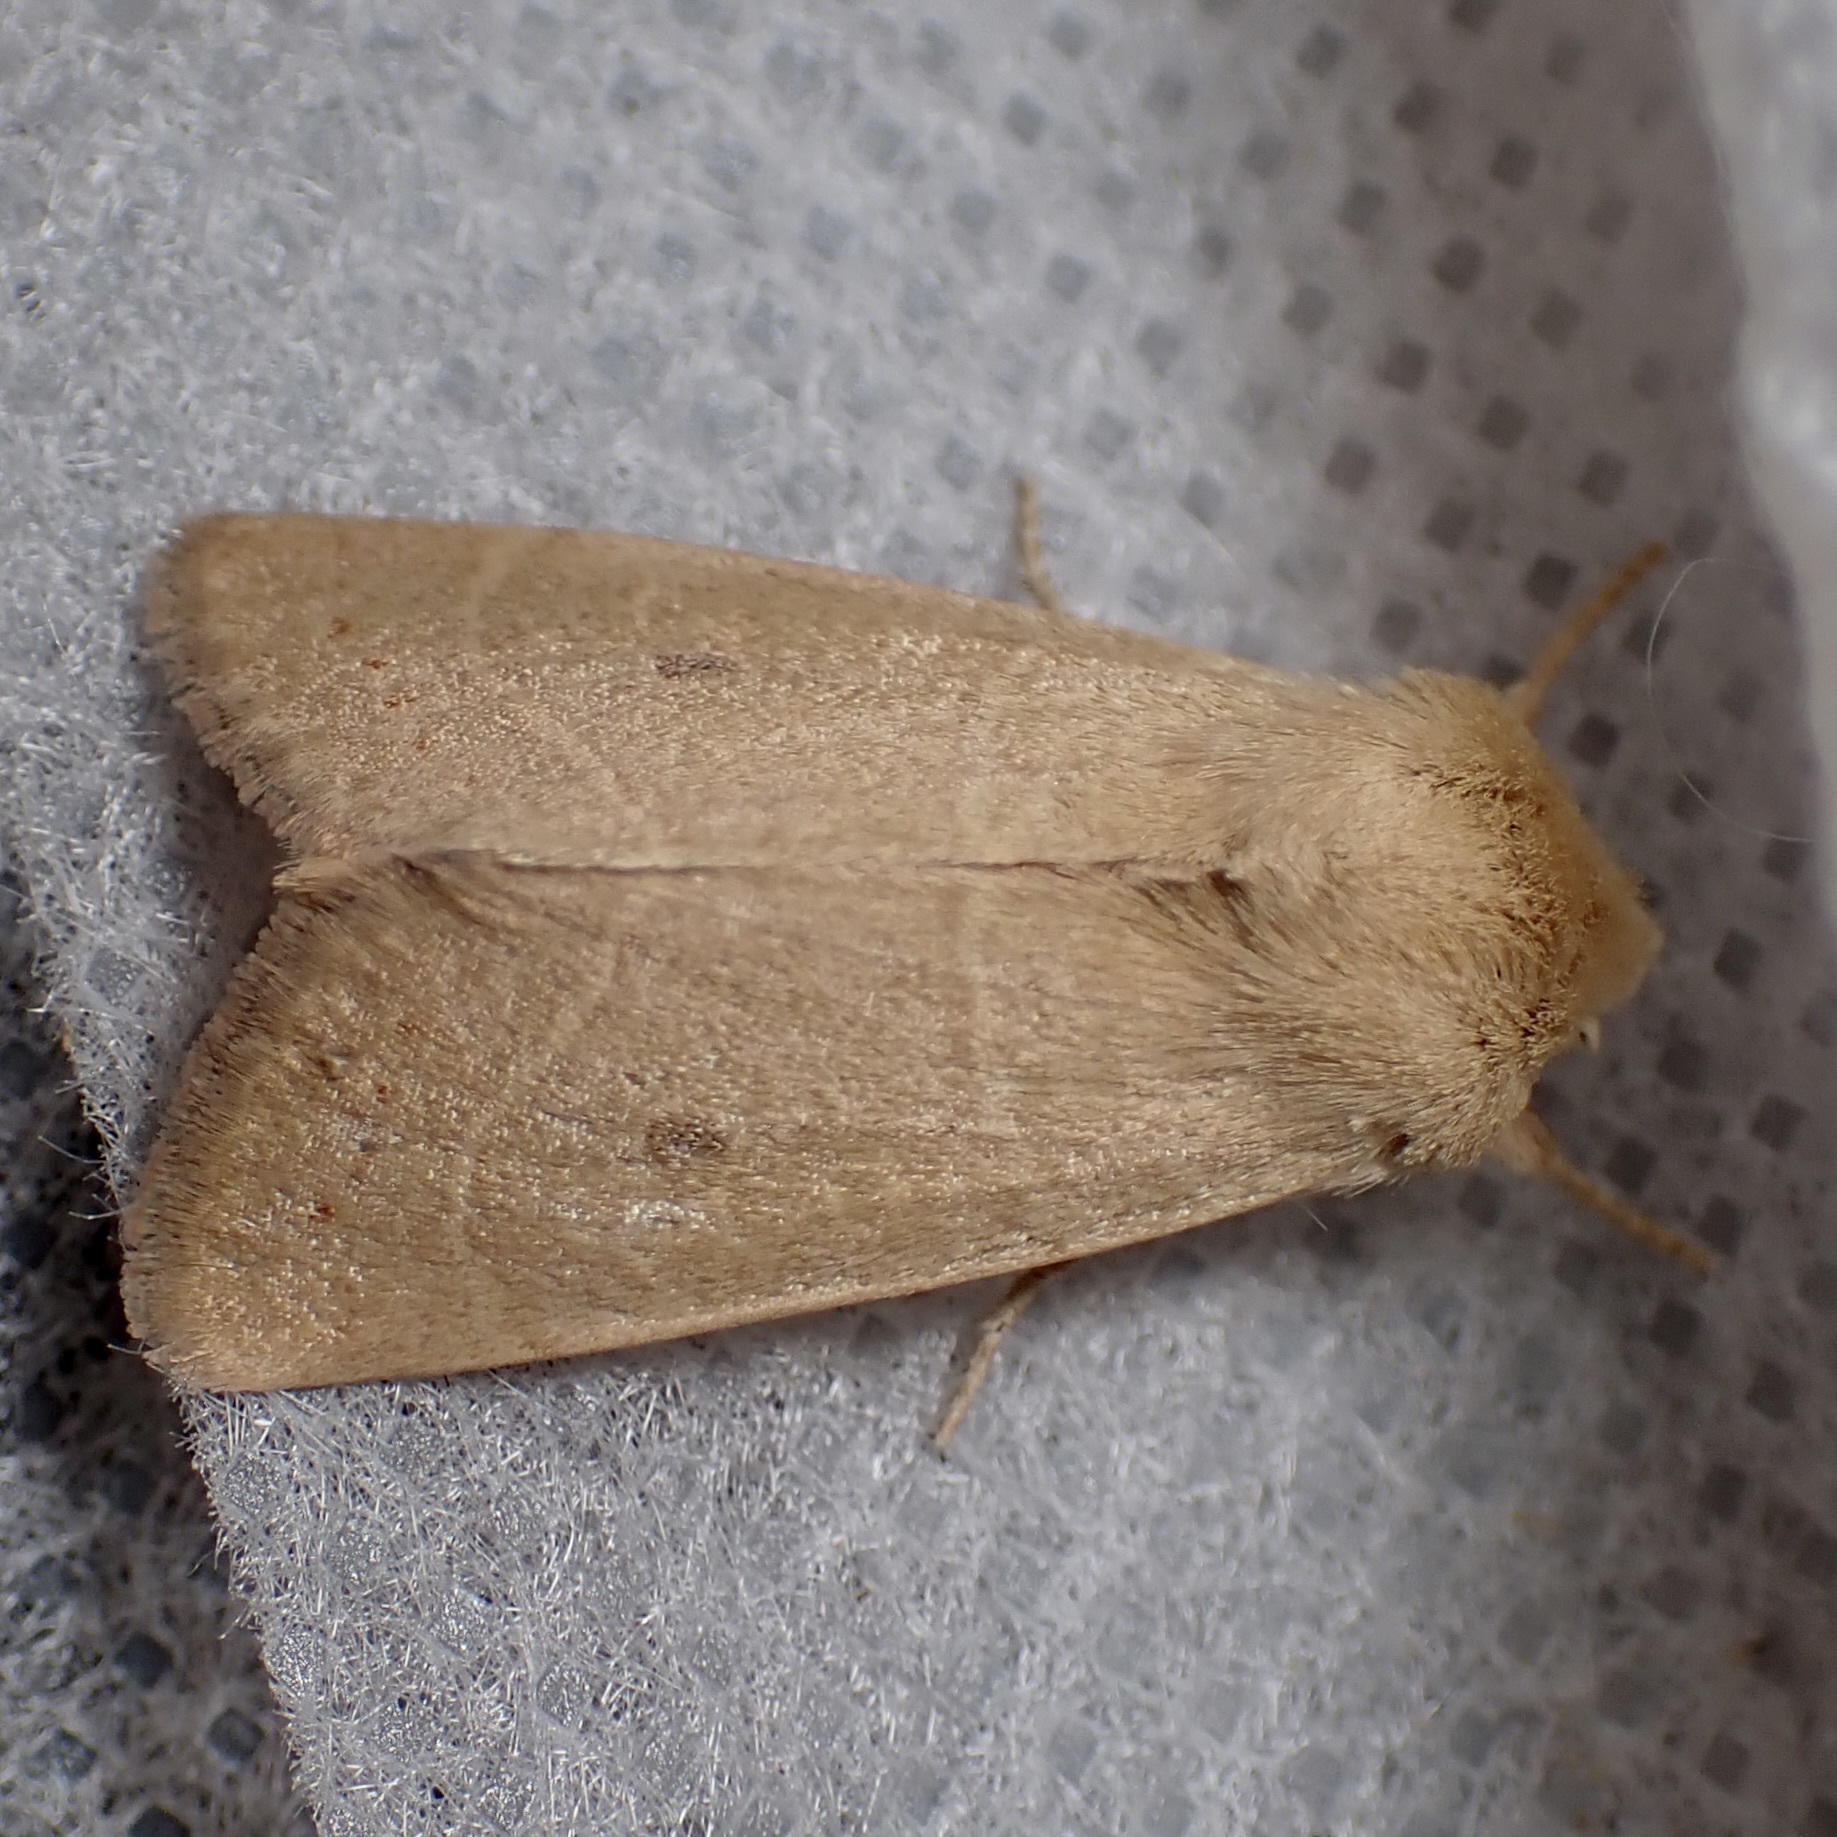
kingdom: Animalia
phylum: Arthropoda
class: Insecta
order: Lepidoptera
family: Noctuidae
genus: Ulolonche
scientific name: Ulolonche consopita
